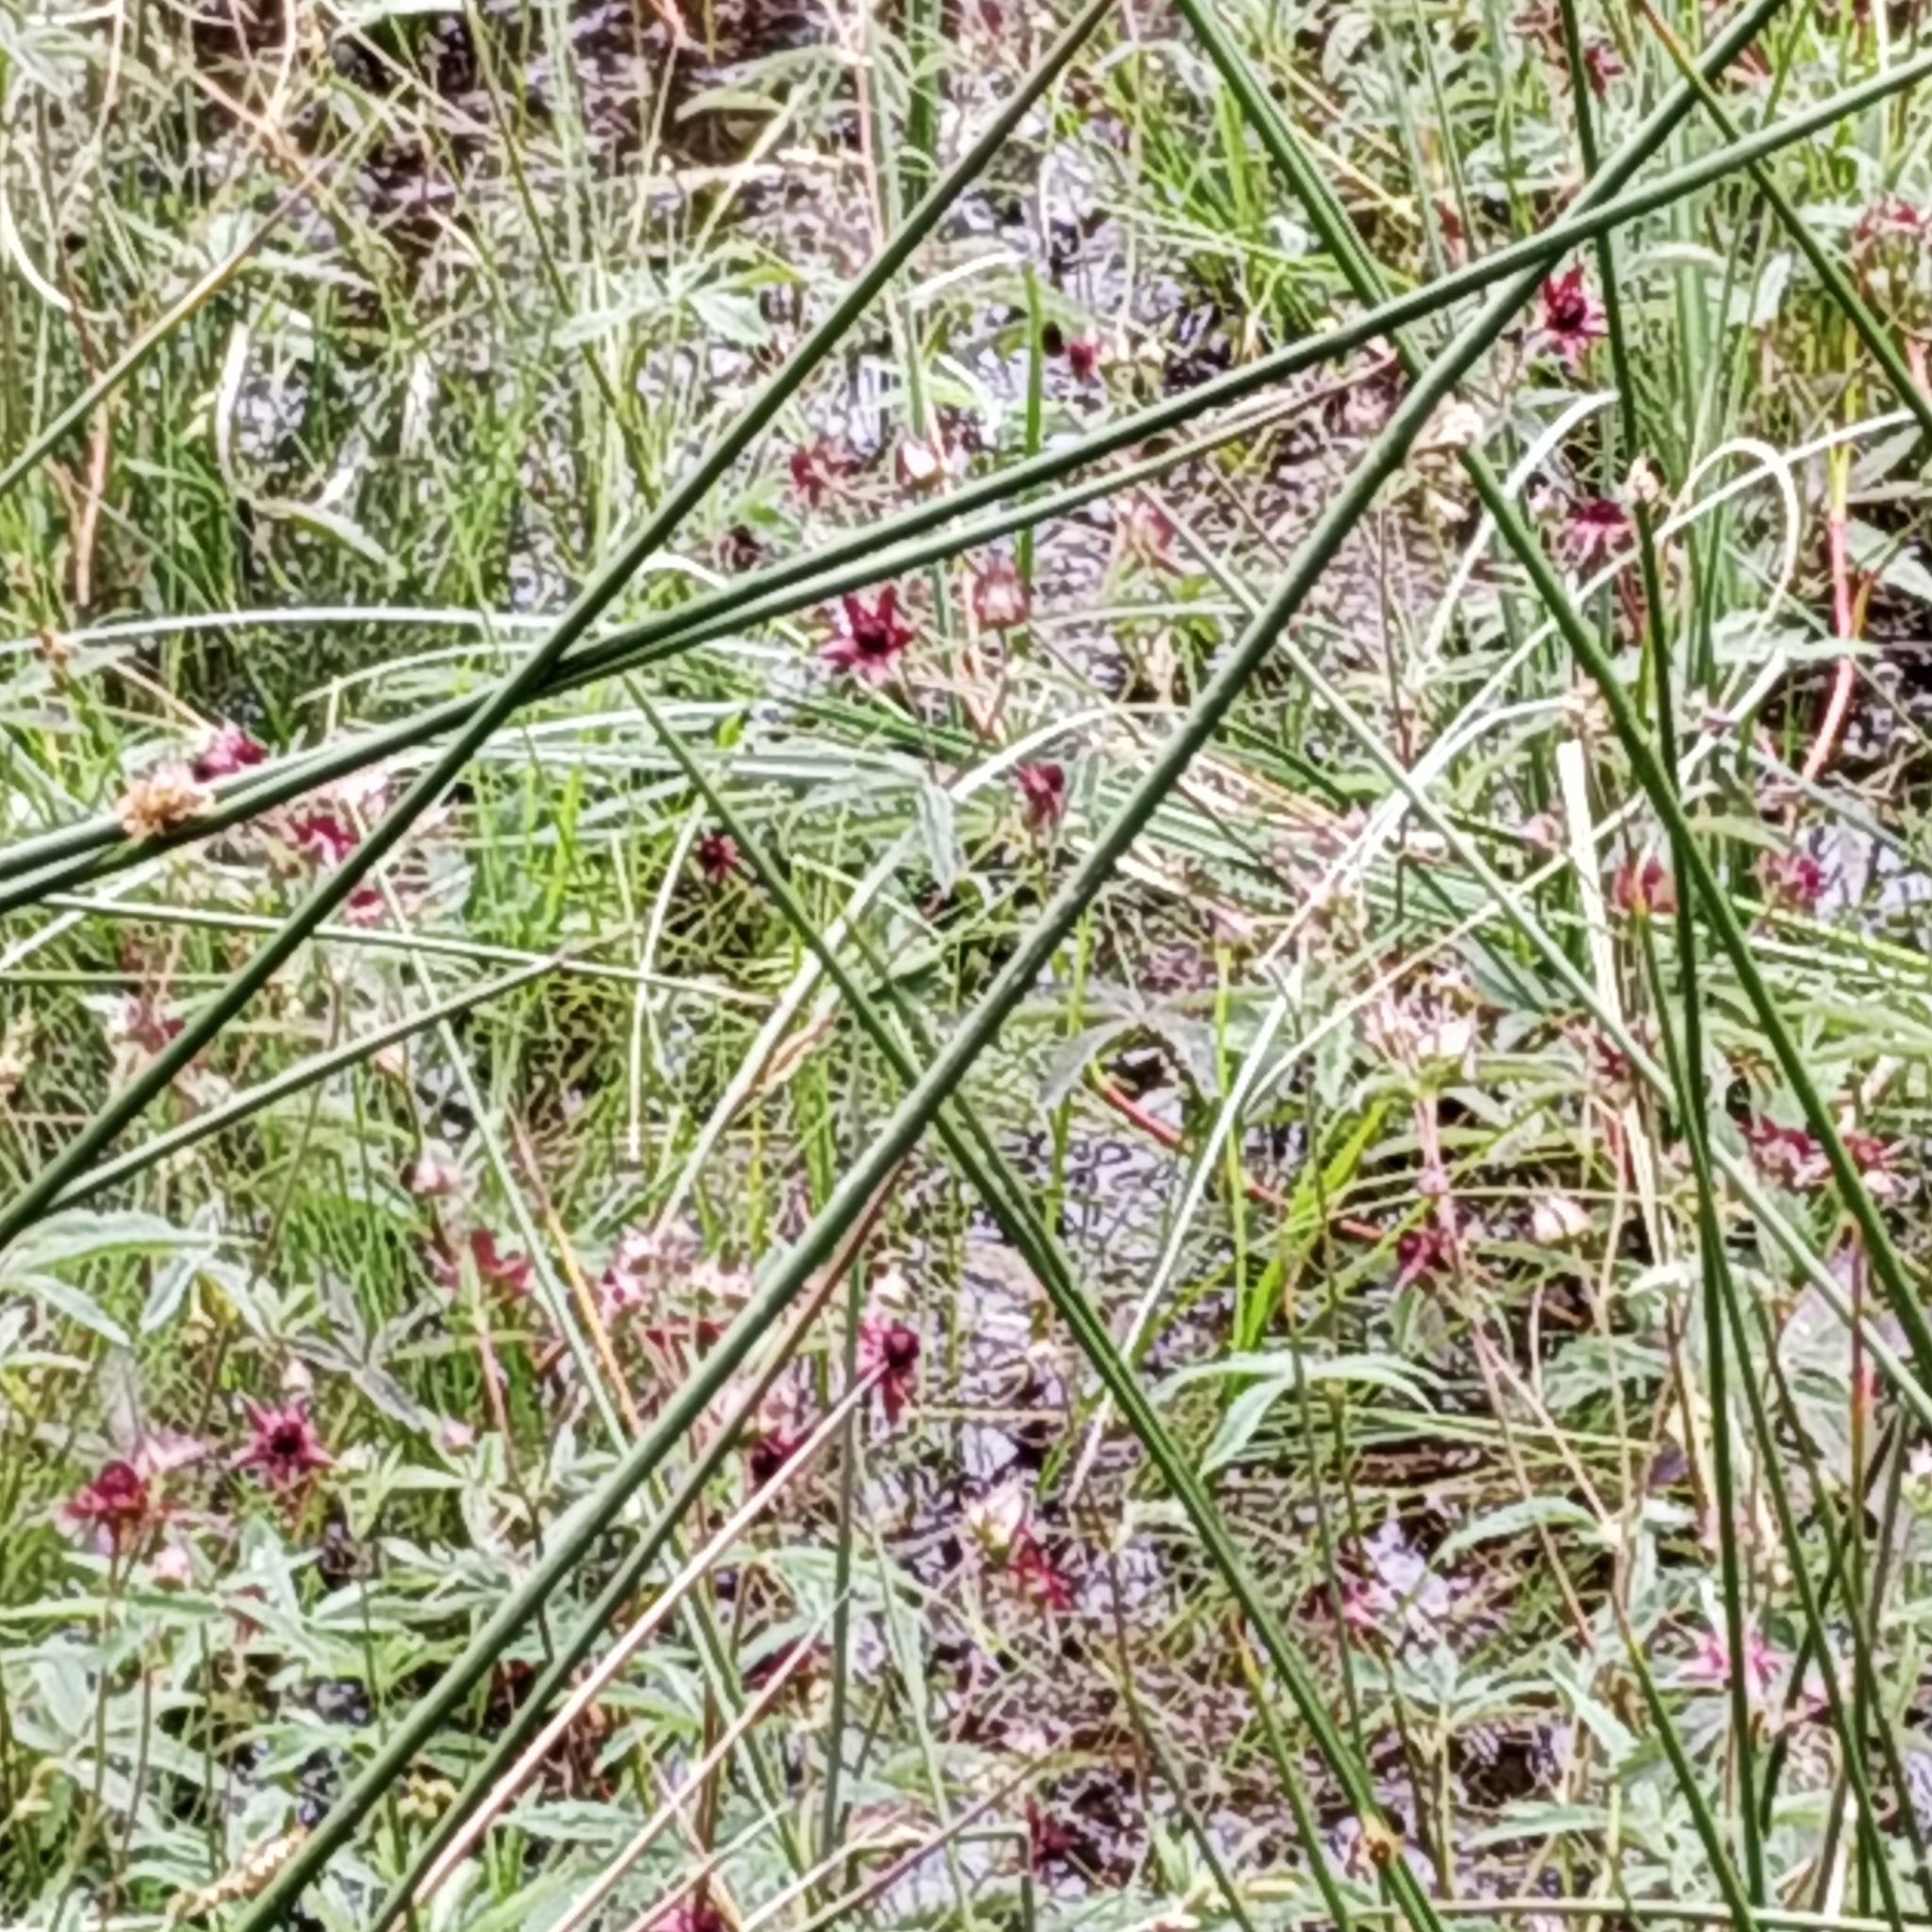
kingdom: Plantae
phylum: Tracheophyta
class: Magnoliopsida
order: Rosales
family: Rosaceae
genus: Comarum
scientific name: Comarum palustre
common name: Marsh cinquefoil
